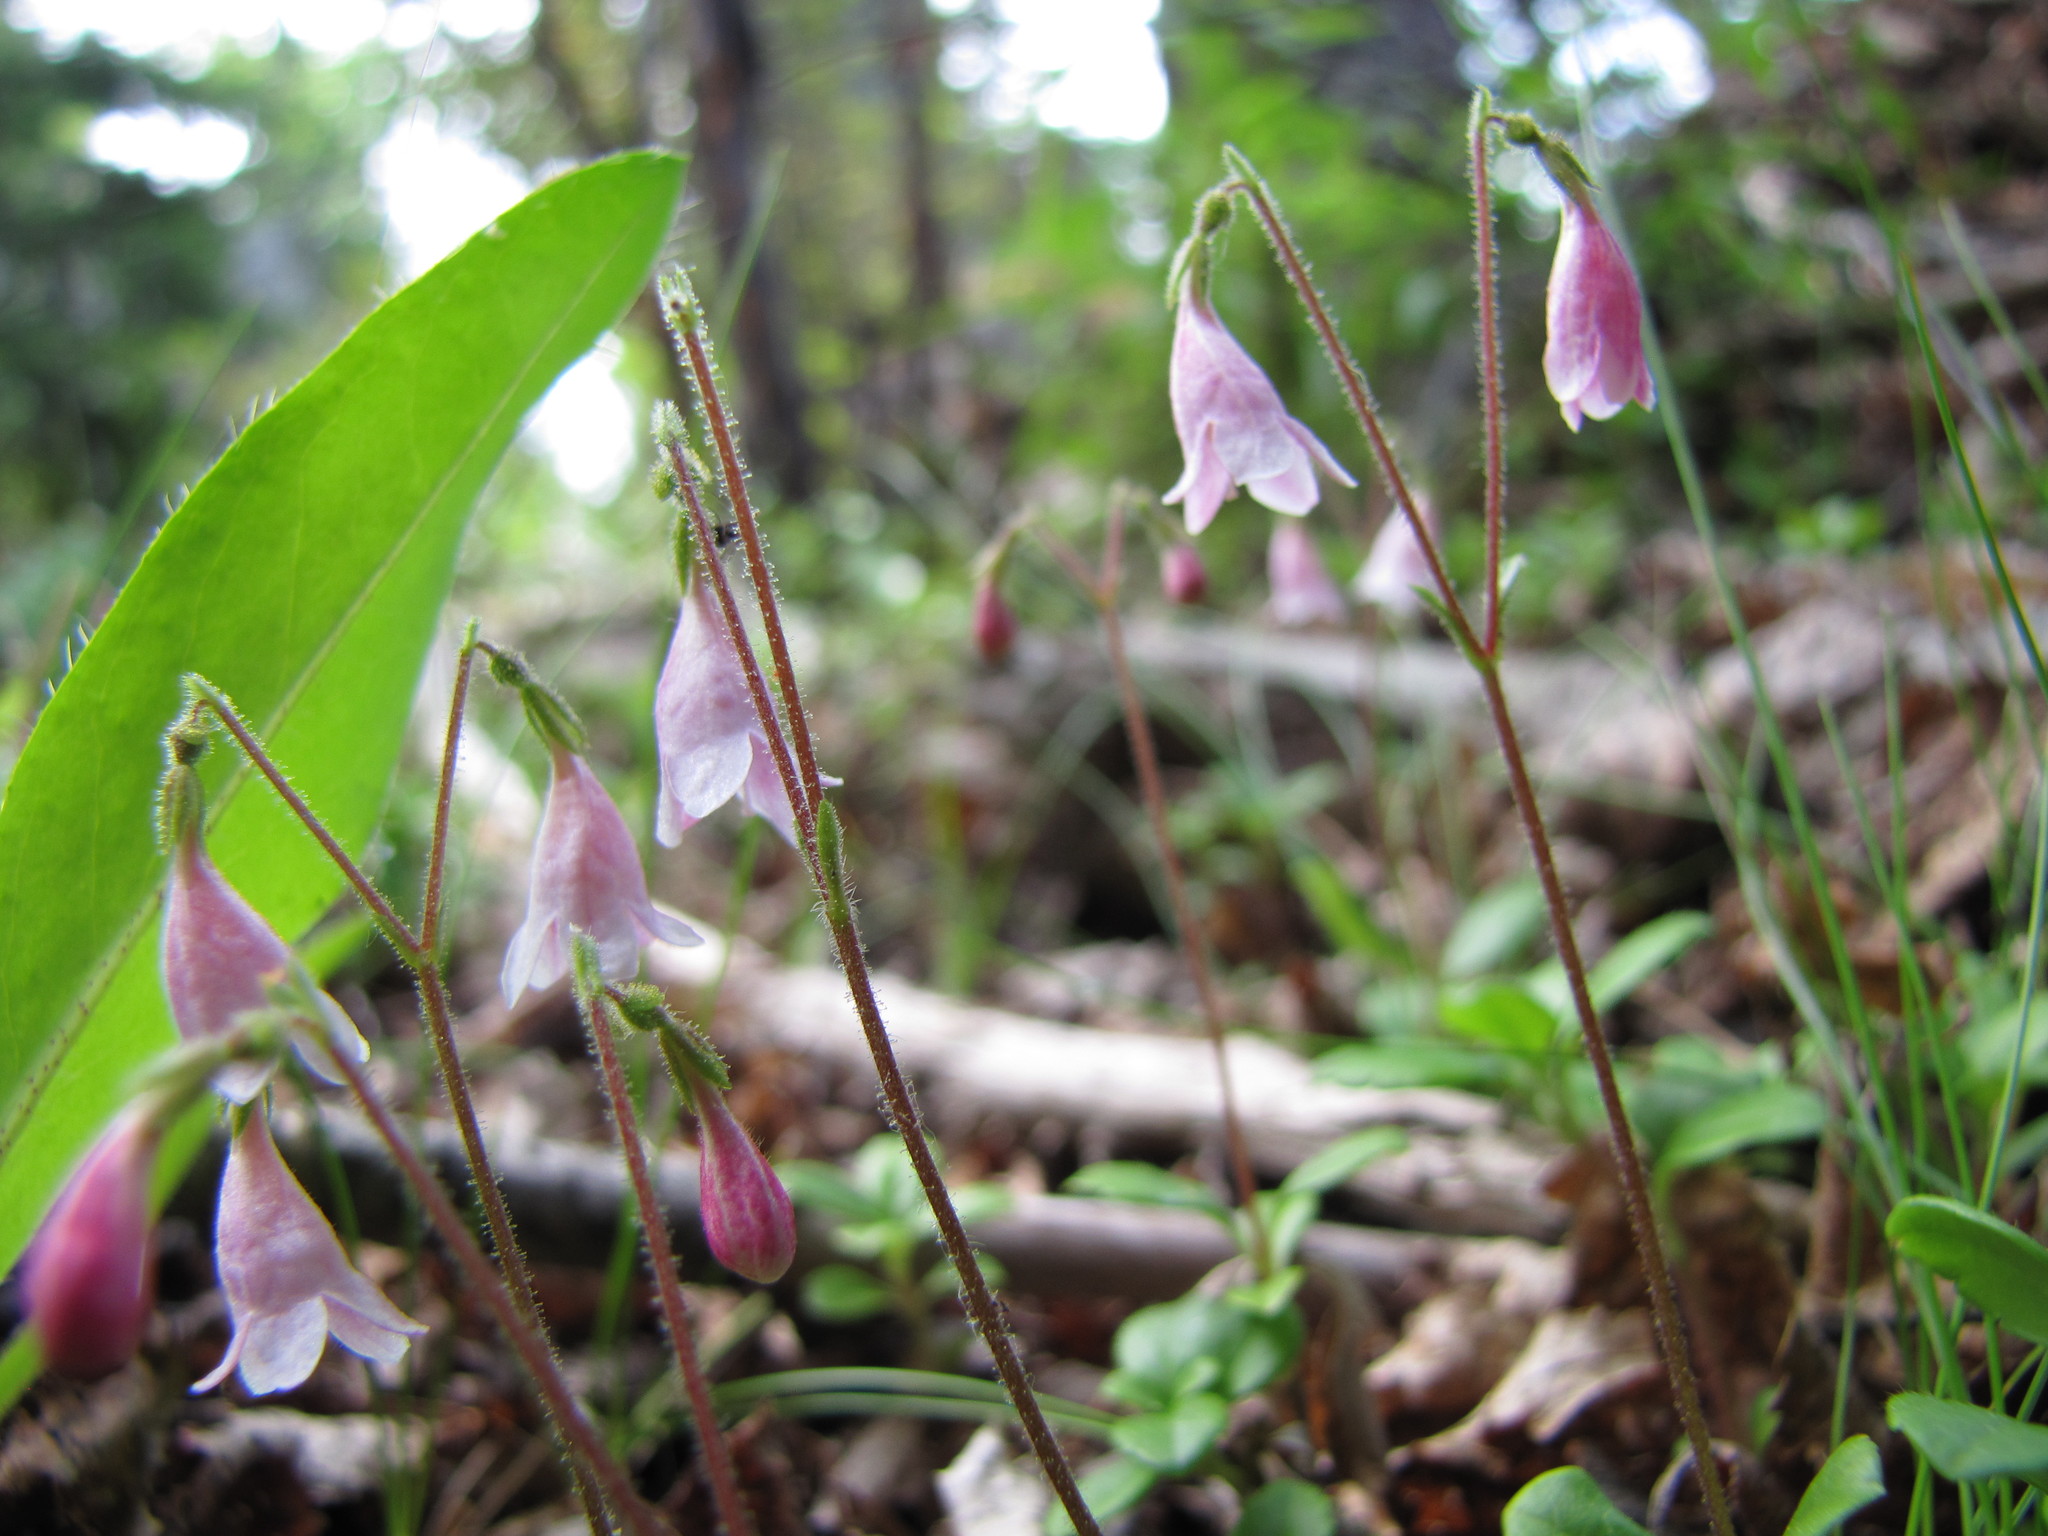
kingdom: Plantae
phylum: Tracheophyta
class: Magnoliopsida
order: Dipsacales
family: Caprifoliaceae
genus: Linnaea
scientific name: Linnaea borealis
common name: Twinflower
